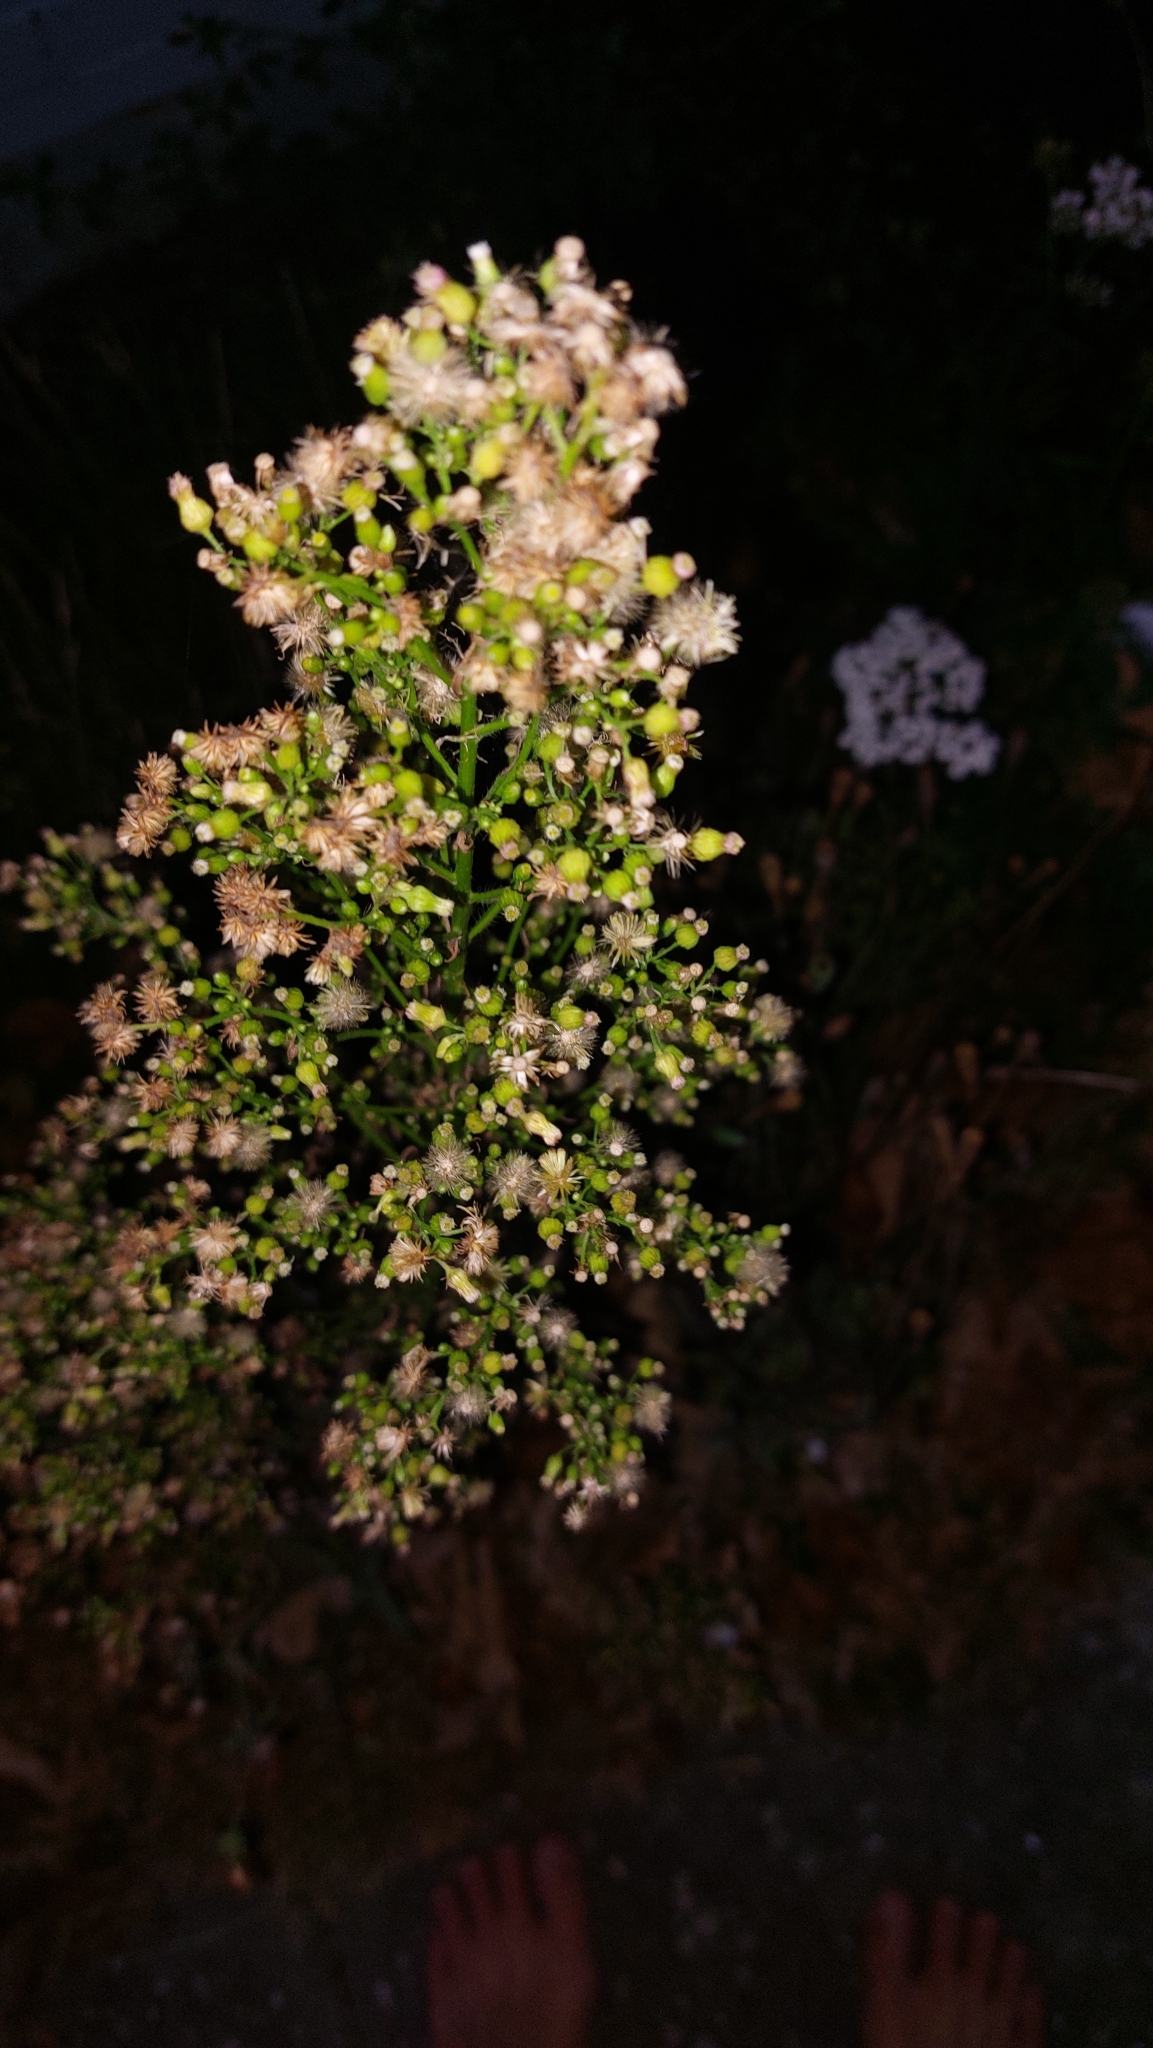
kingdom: Plantae
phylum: Tracheophyta
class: Magnoliopsida
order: Asterales
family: Asteraceae
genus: Erigeron
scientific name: Erigeron canadensis
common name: Canadian fleabane
